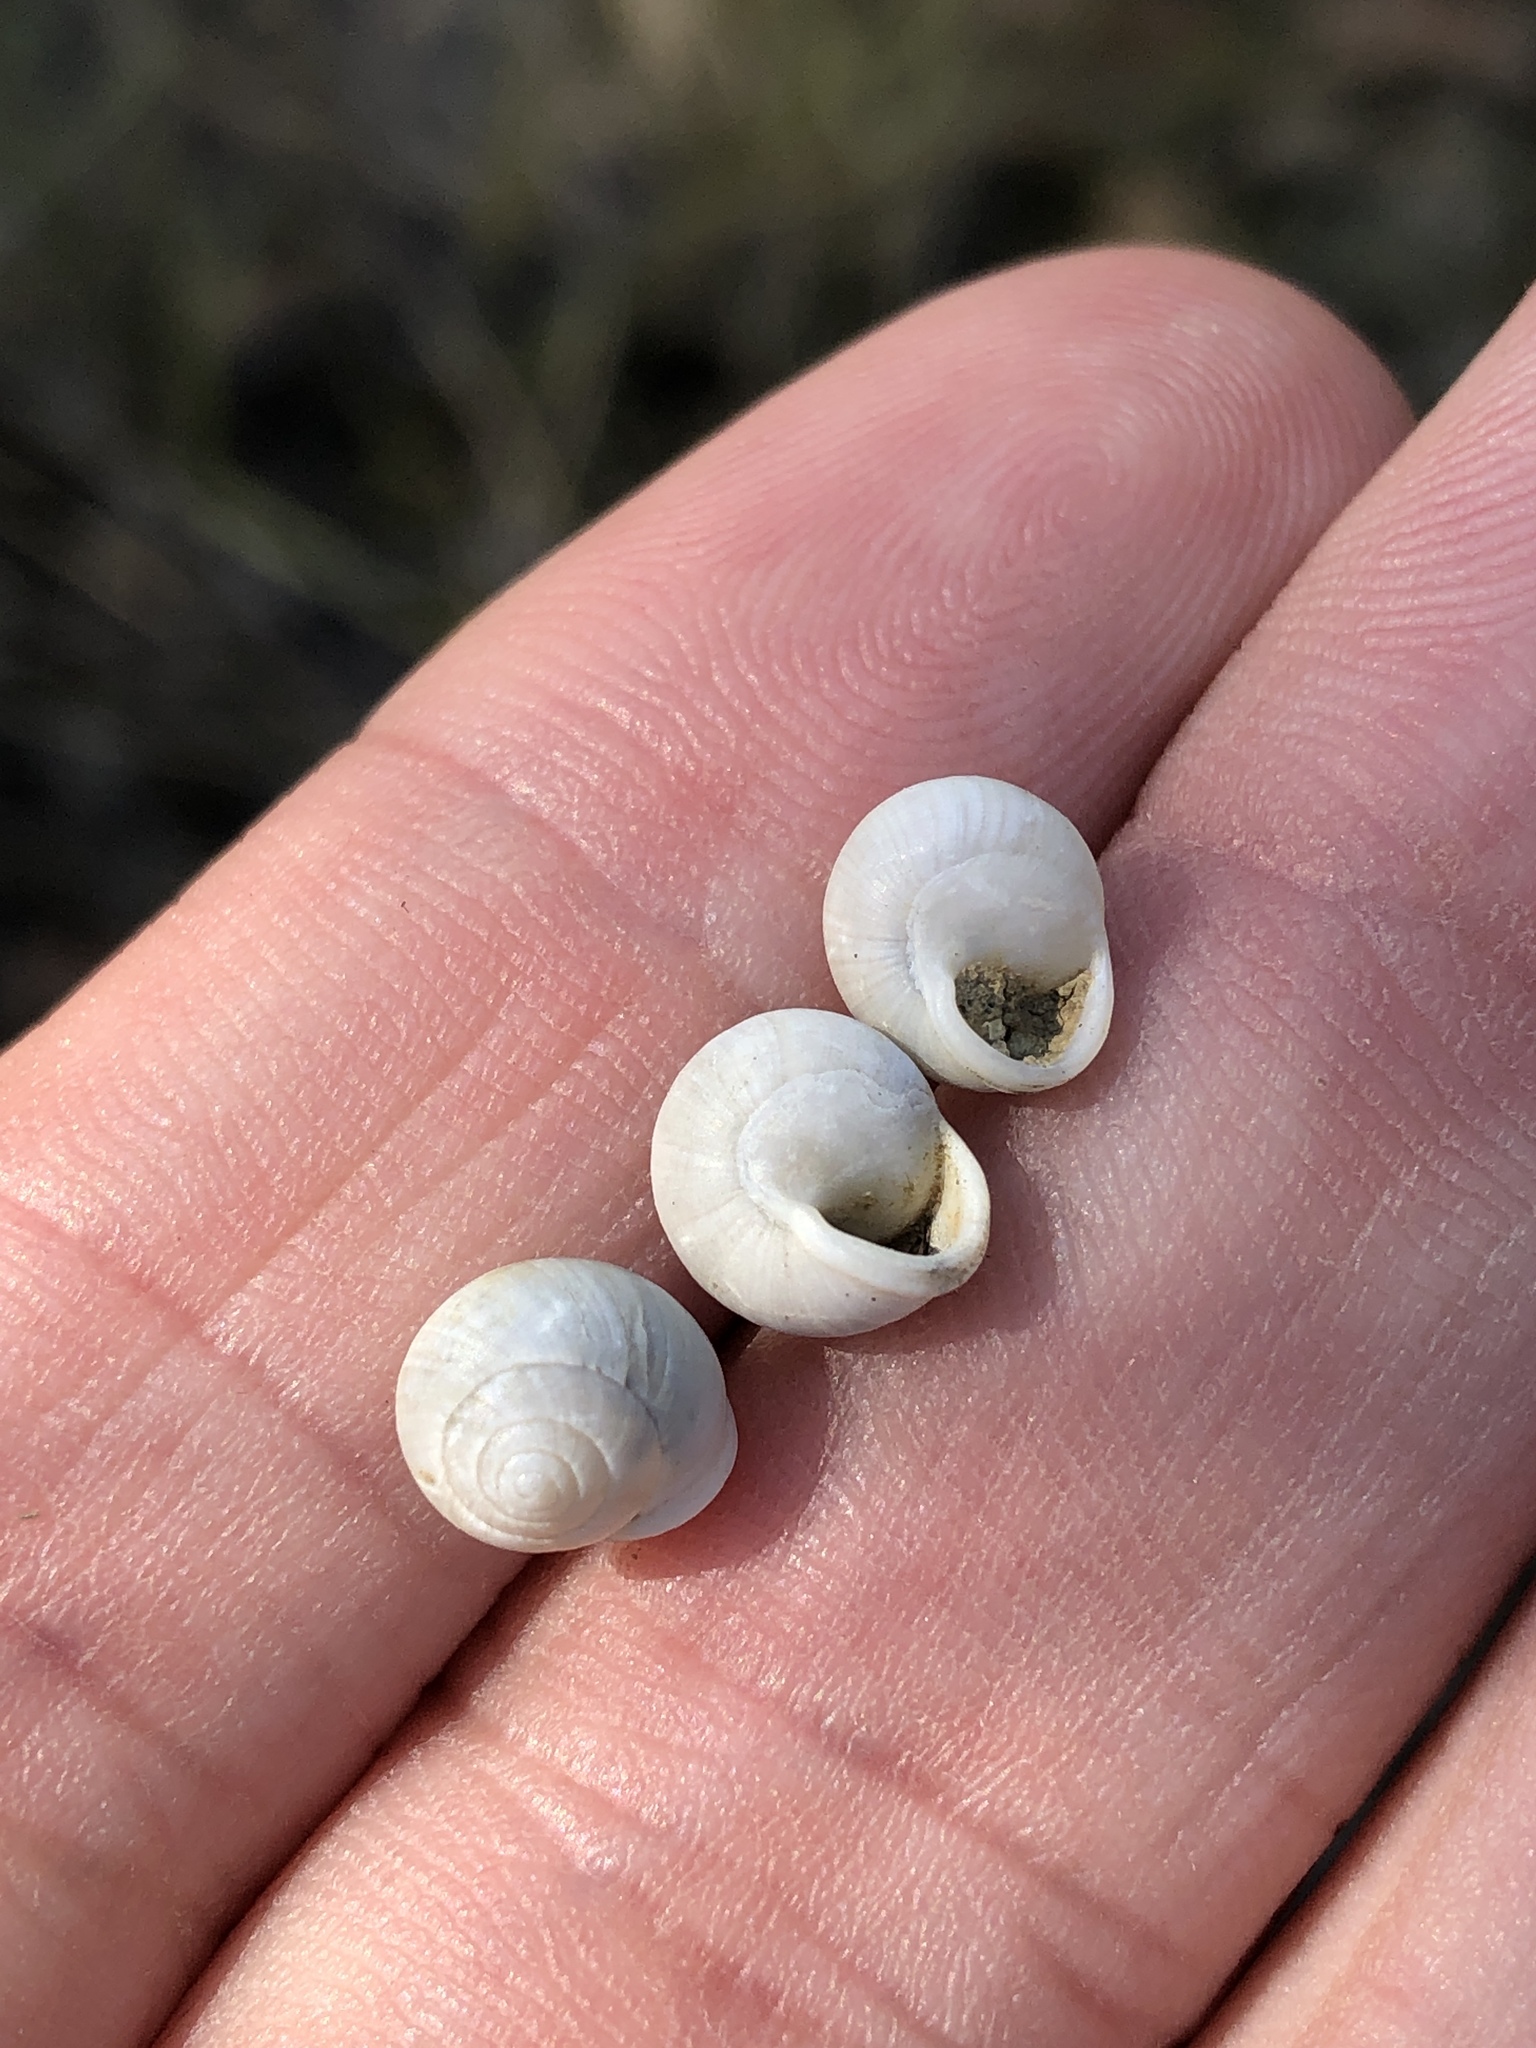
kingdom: Animalia
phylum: Mollusca
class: Gastropoda
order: Cycloneritida
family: Helicinidae
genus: Helicina
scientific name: Helicina orbiculata
